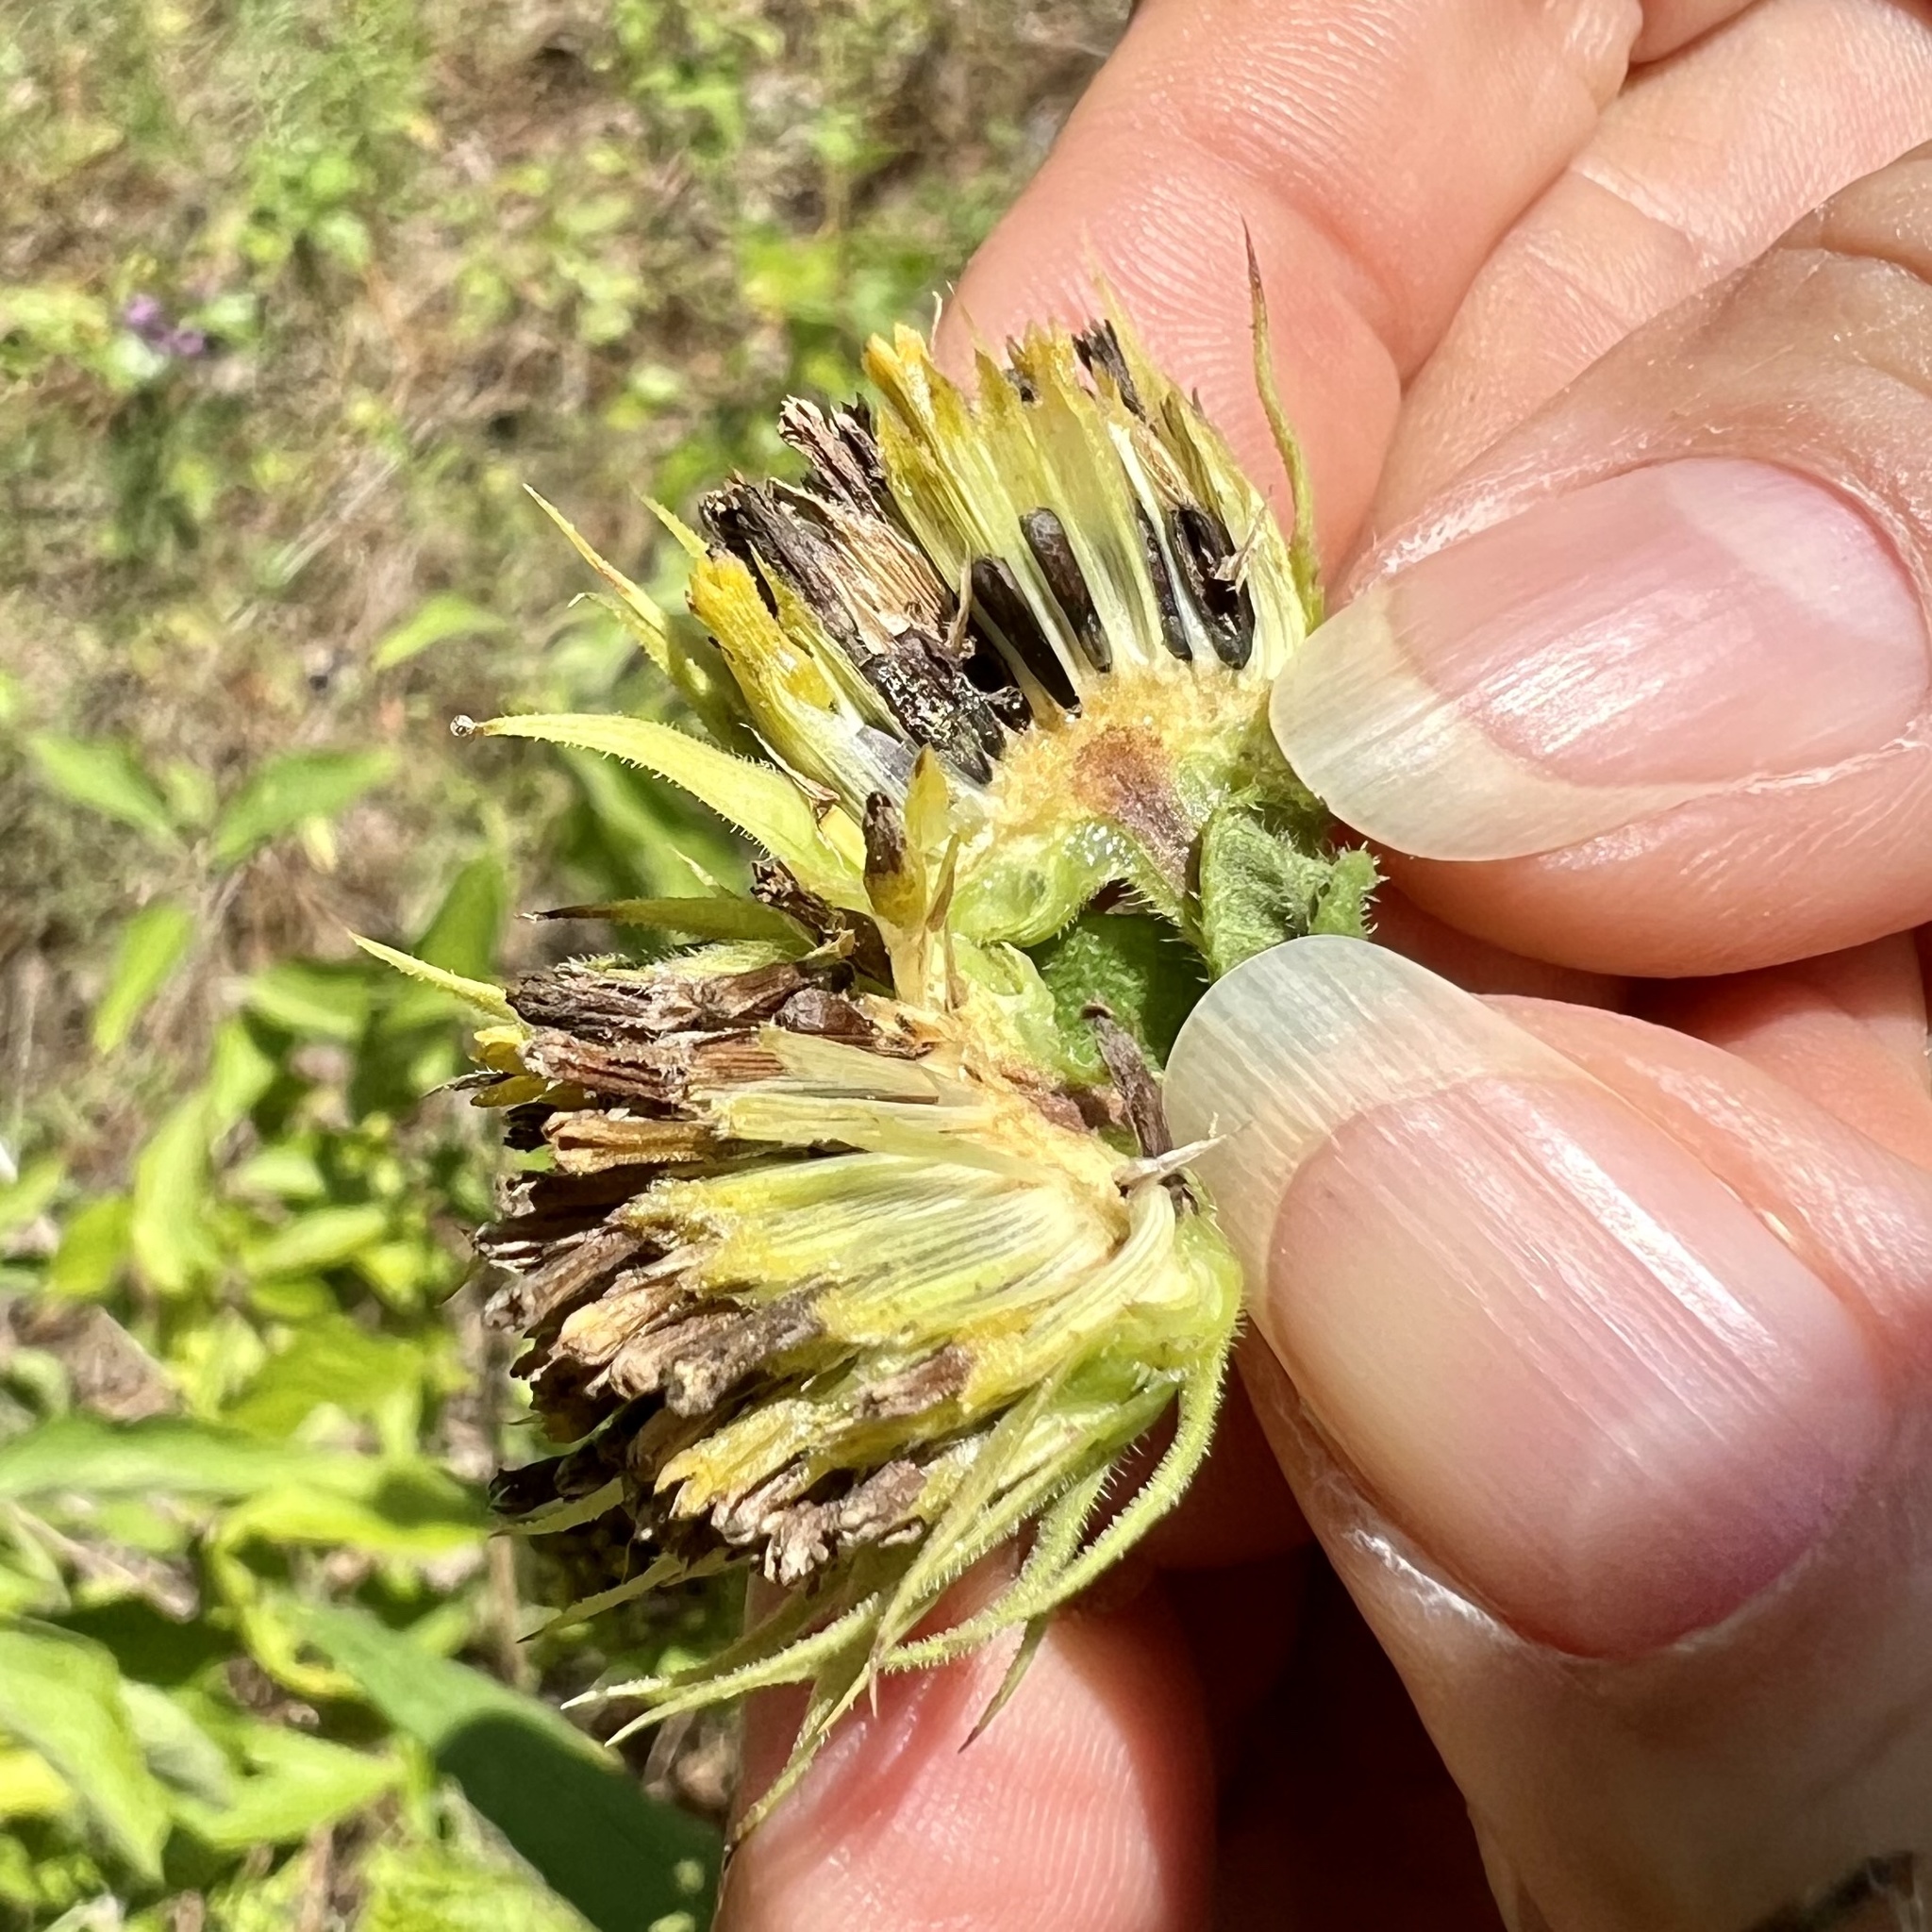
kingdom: Plantae
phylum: Tracheophyta
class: Magnoliopsida
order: Asterales
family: Asteraceae
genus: Helianthus
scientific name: Helianthus hirsutus
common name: Hairy sunflower
